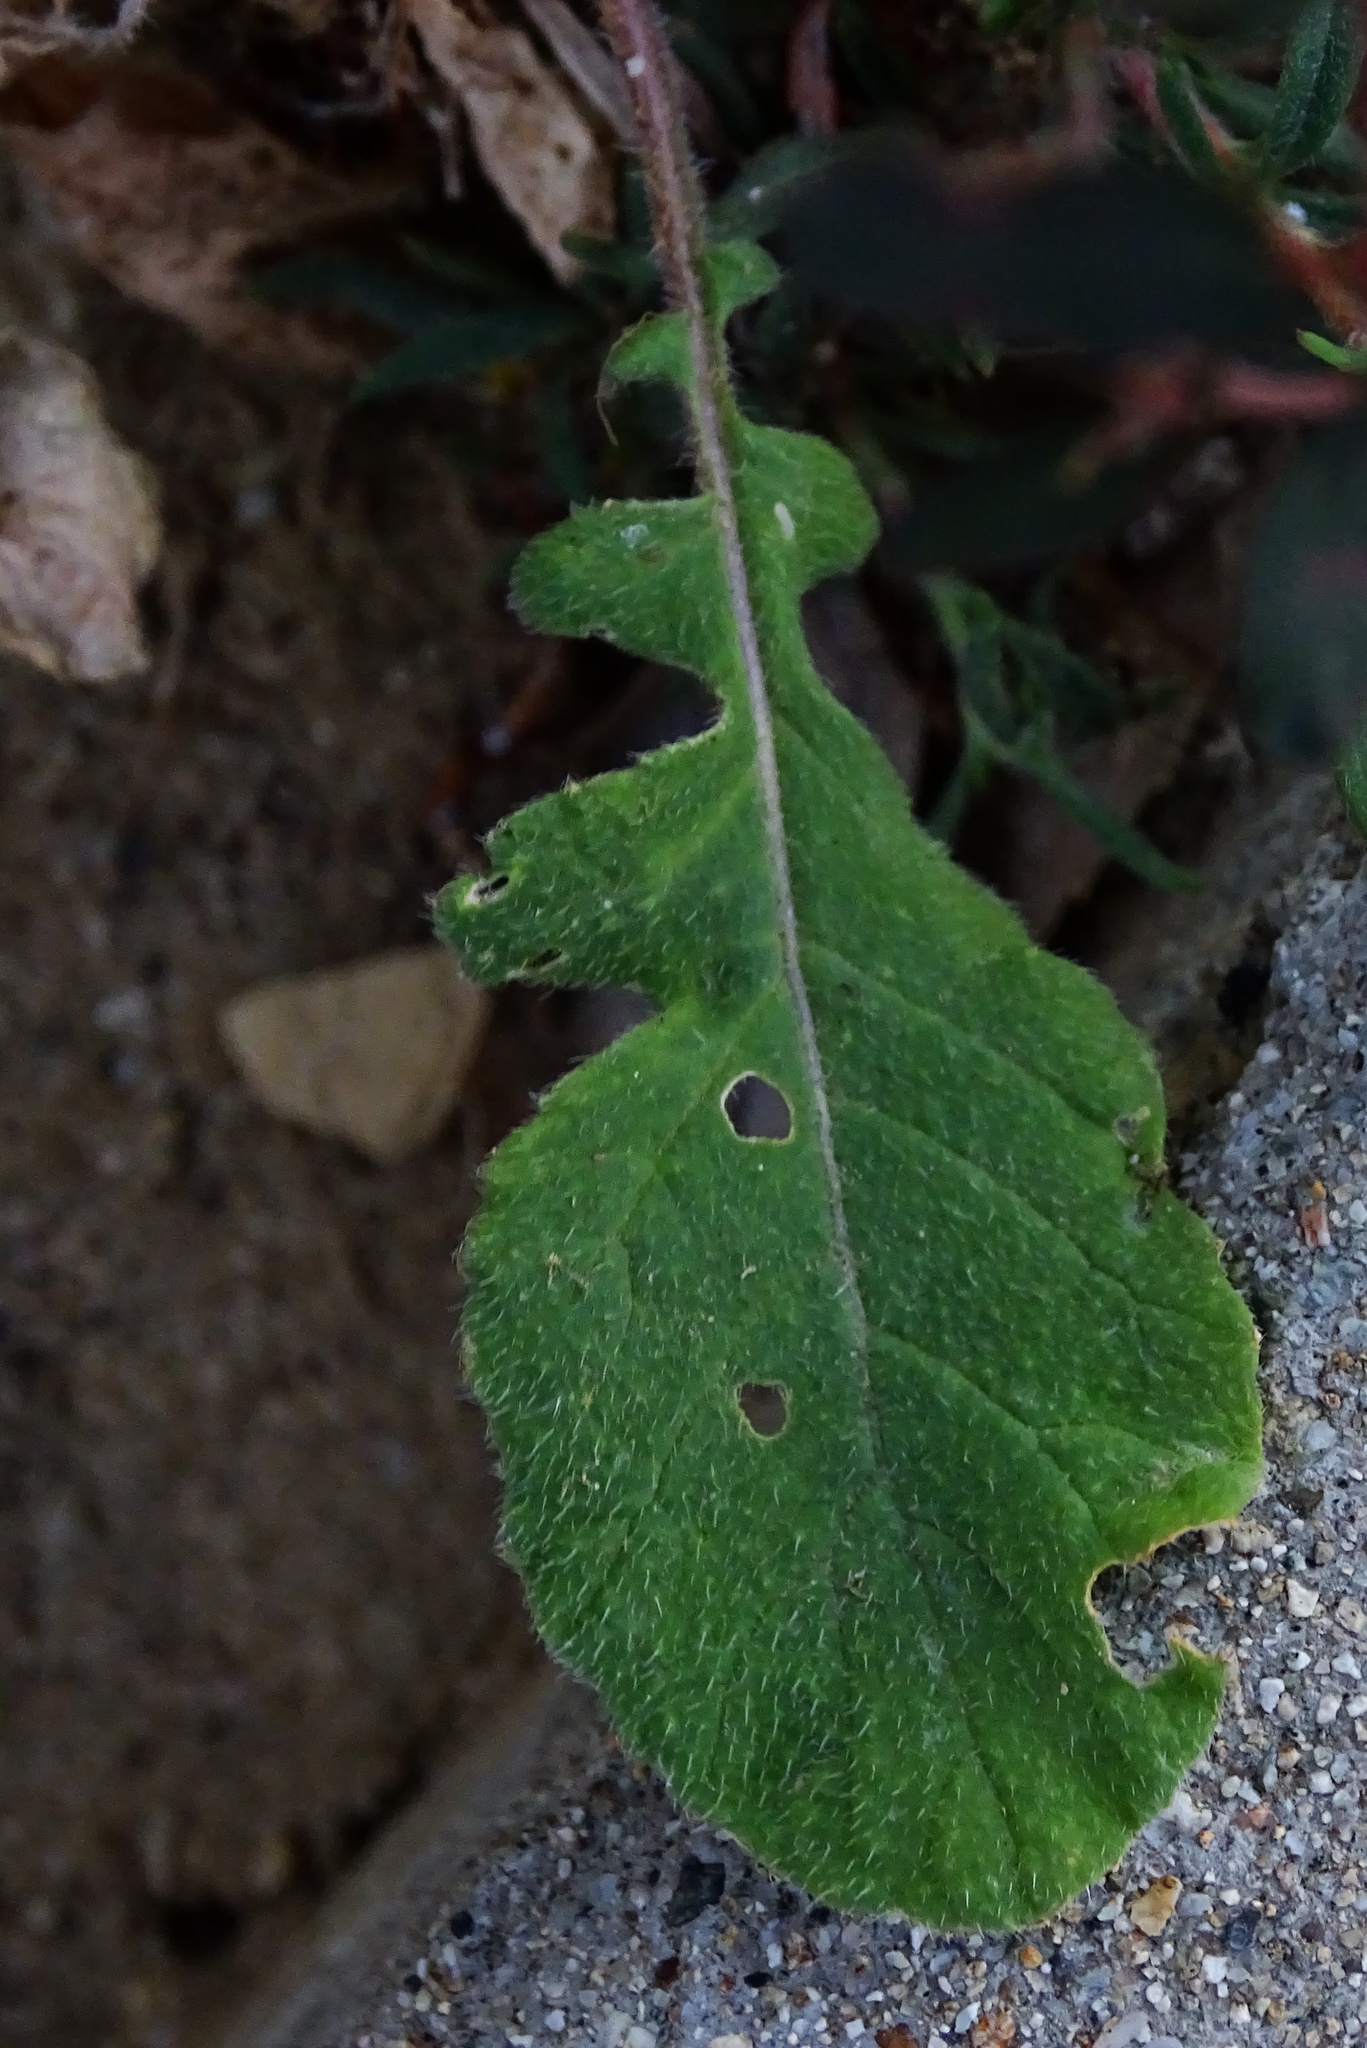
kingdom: Plantae
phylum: Tracheophyta
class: Magnoliopsida
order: Brassicales
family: Brassicaceae
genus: Hirschfeldia
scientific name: Hirschfeldia incana
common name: Hoary mustard
